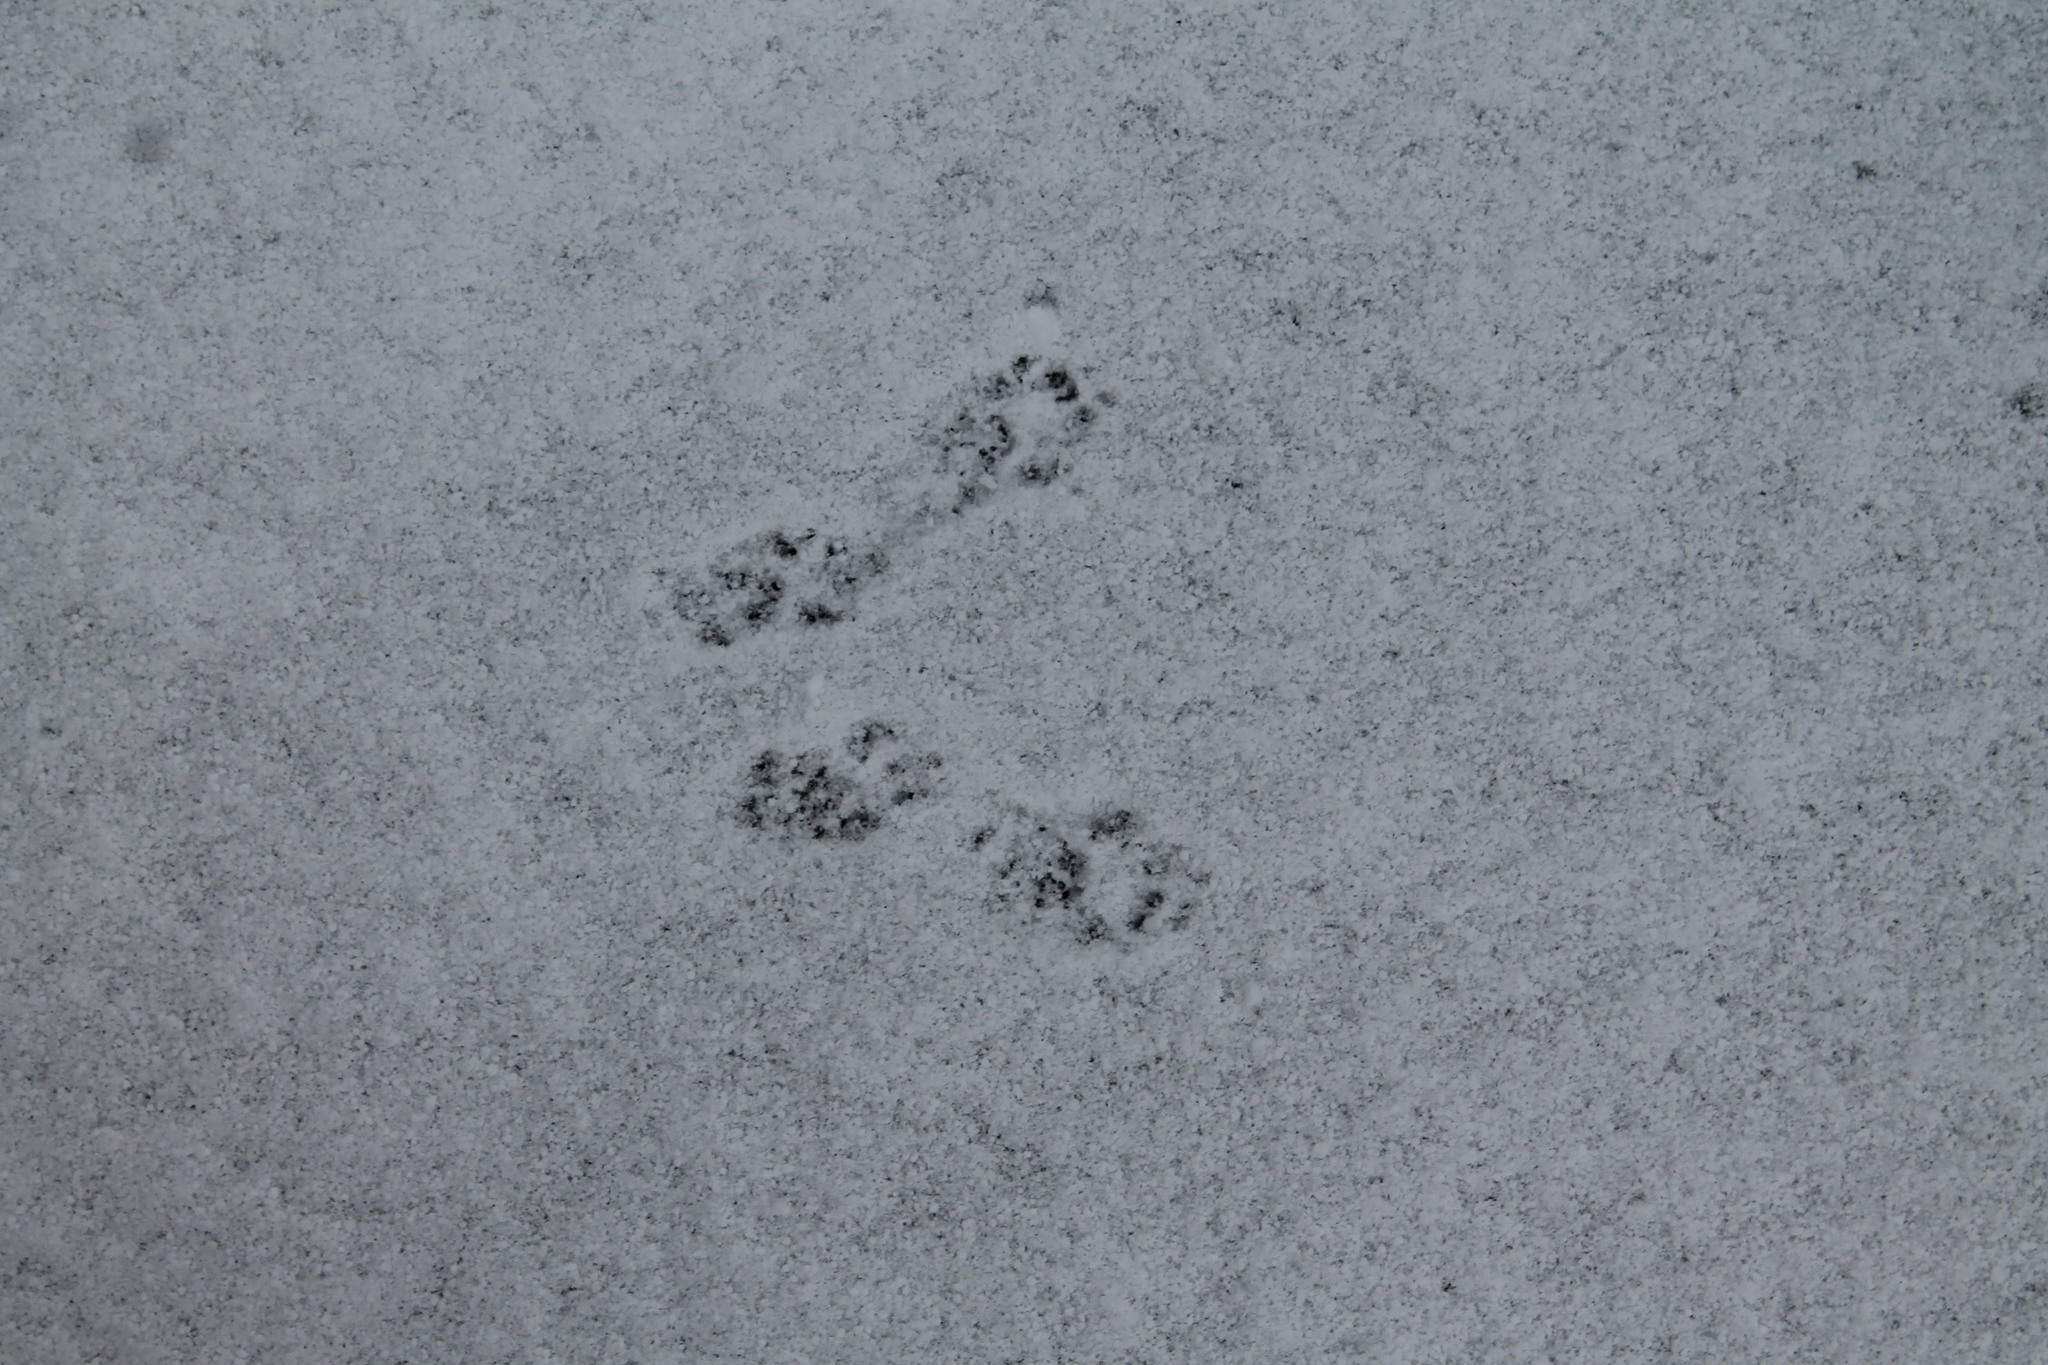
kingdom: Animalia
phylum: Chordata
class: Mammalia
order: Rodentia
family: Sciuridae
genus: Sciurus
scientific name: Sciurus carolinensis
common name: Eastern gray squirrel
